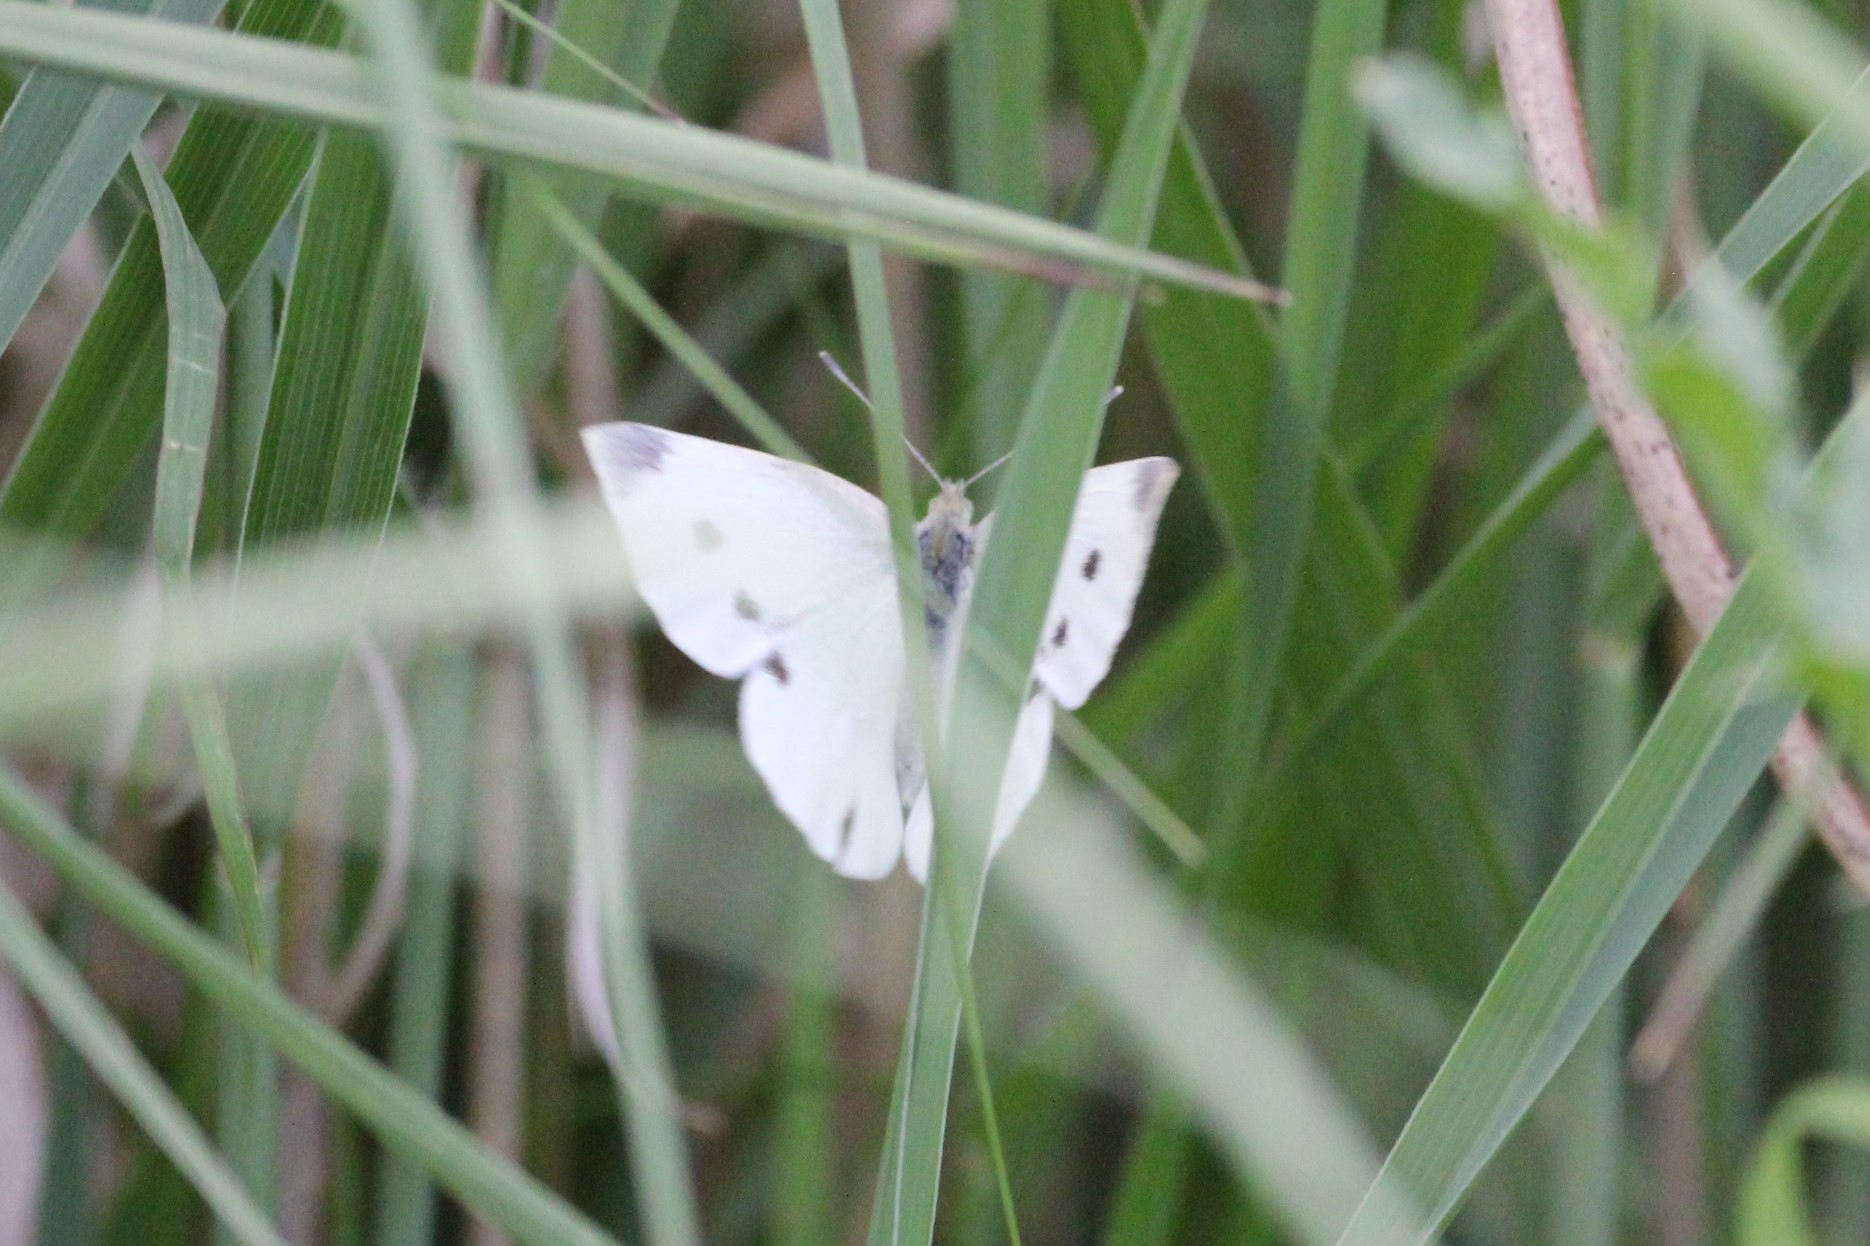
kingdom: Animalia
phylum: Arthropoda
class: Insecta
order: Lepidoptera
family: Pieridae
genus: Pieris
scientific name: Pieris rapae
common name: Small white
